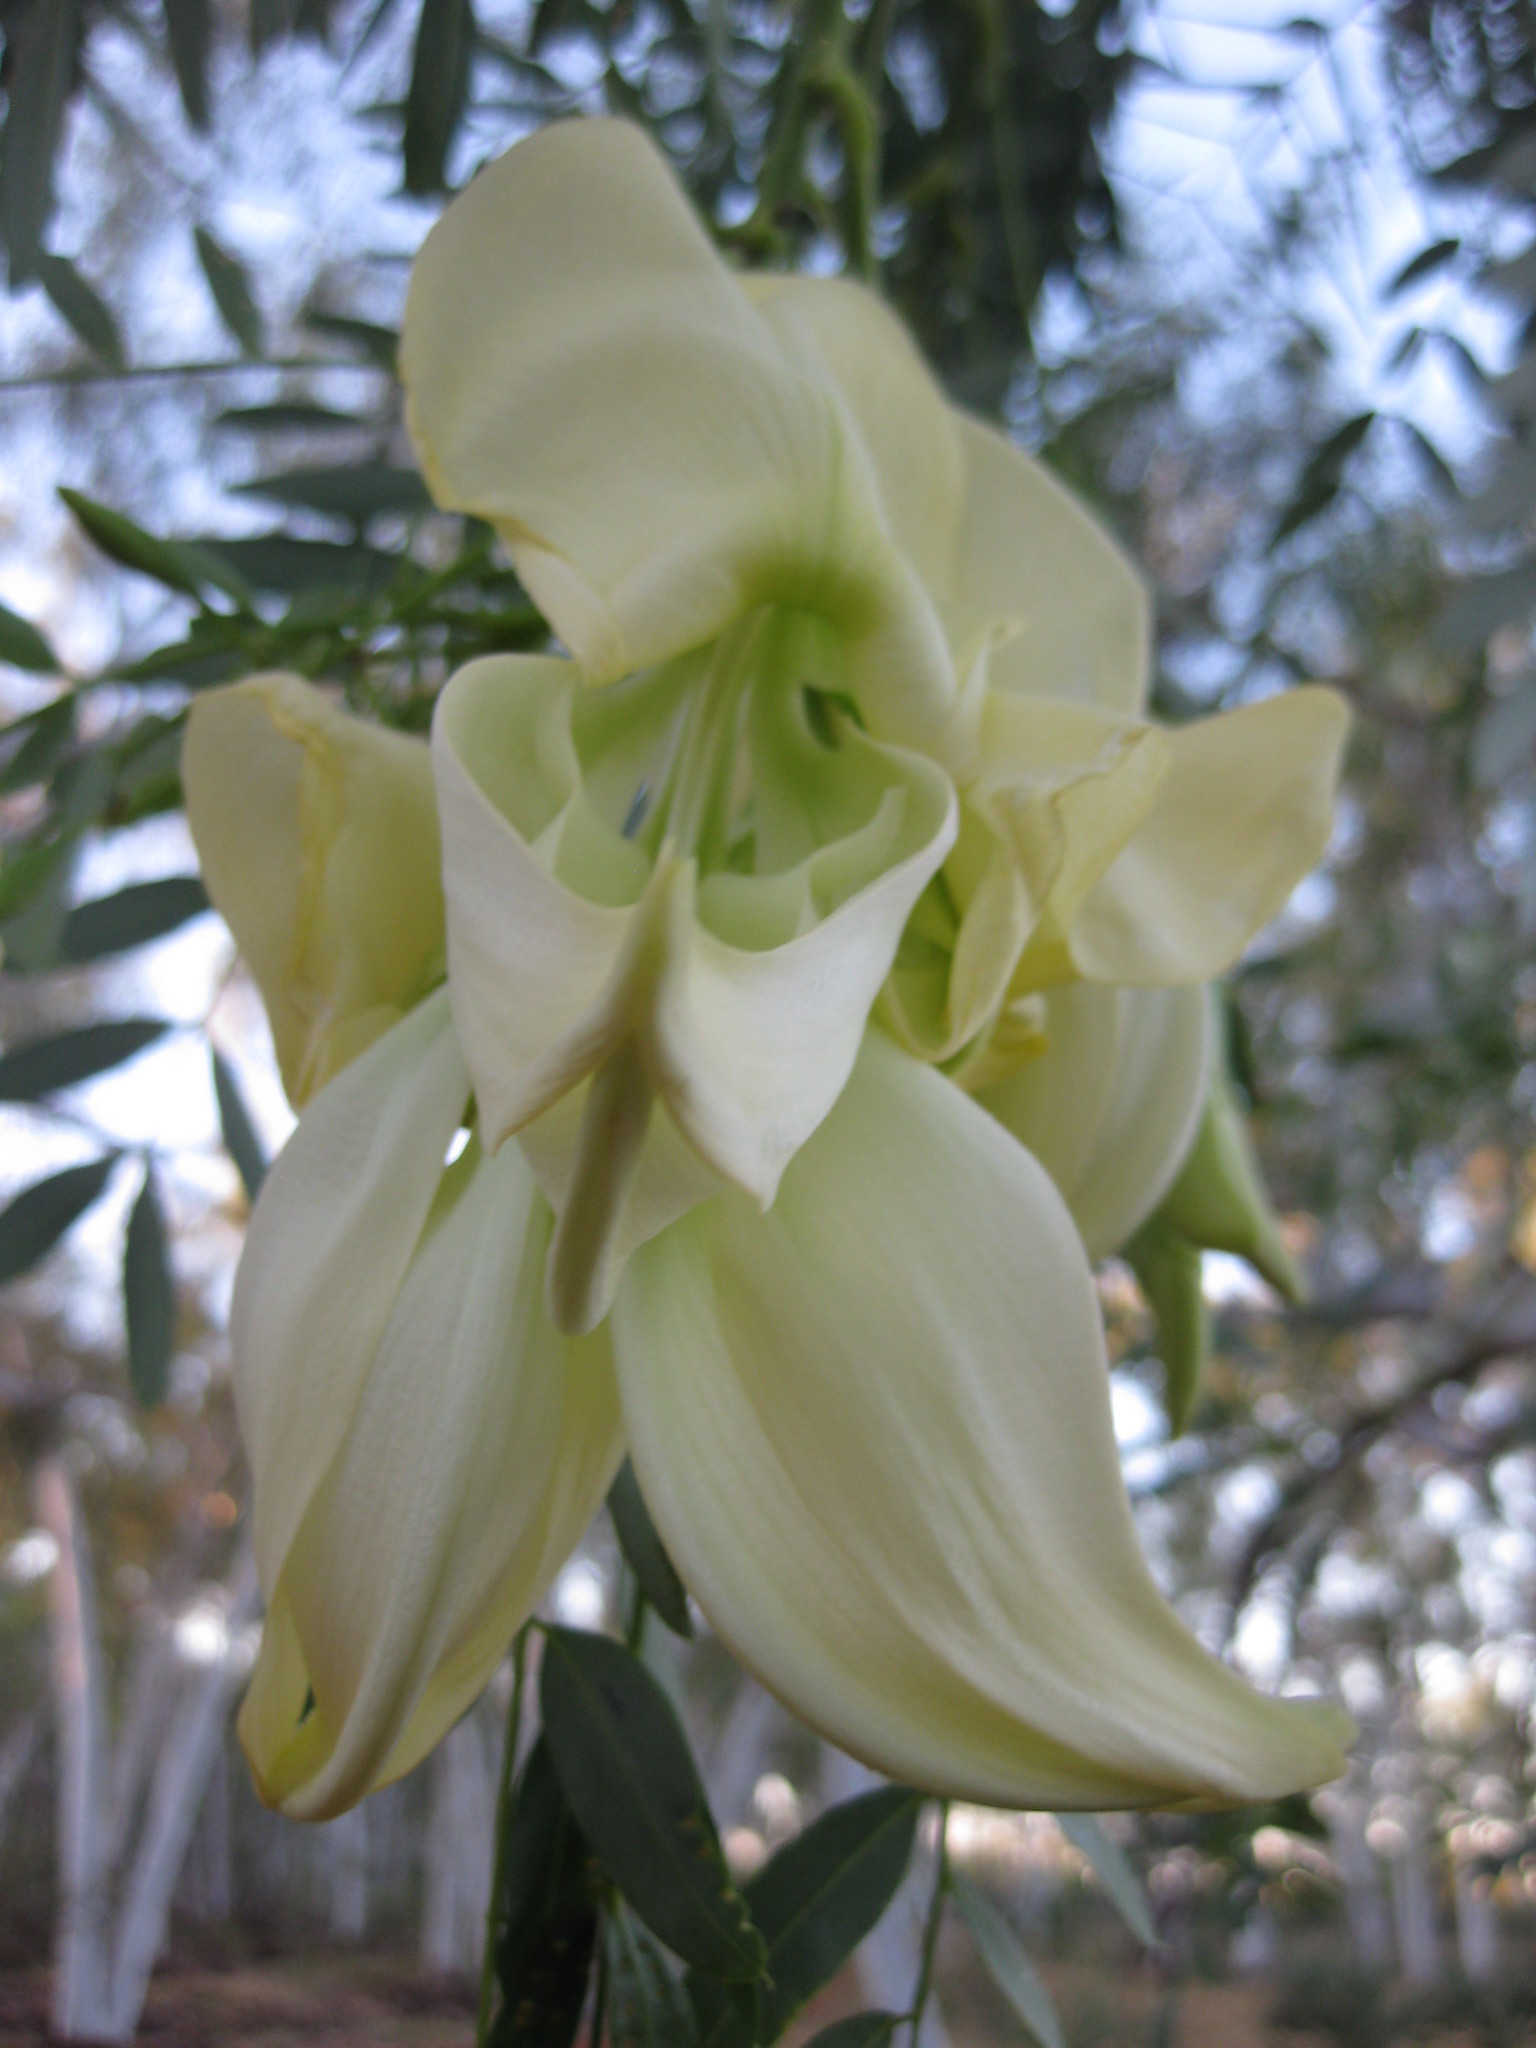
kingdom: Plantae
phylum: Tracheophyta
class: Magnoliopsida
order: Fabales
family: Fabaceae
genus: Sesbania
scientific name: Sesbania formosa
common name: Vegetable-hummingbird
